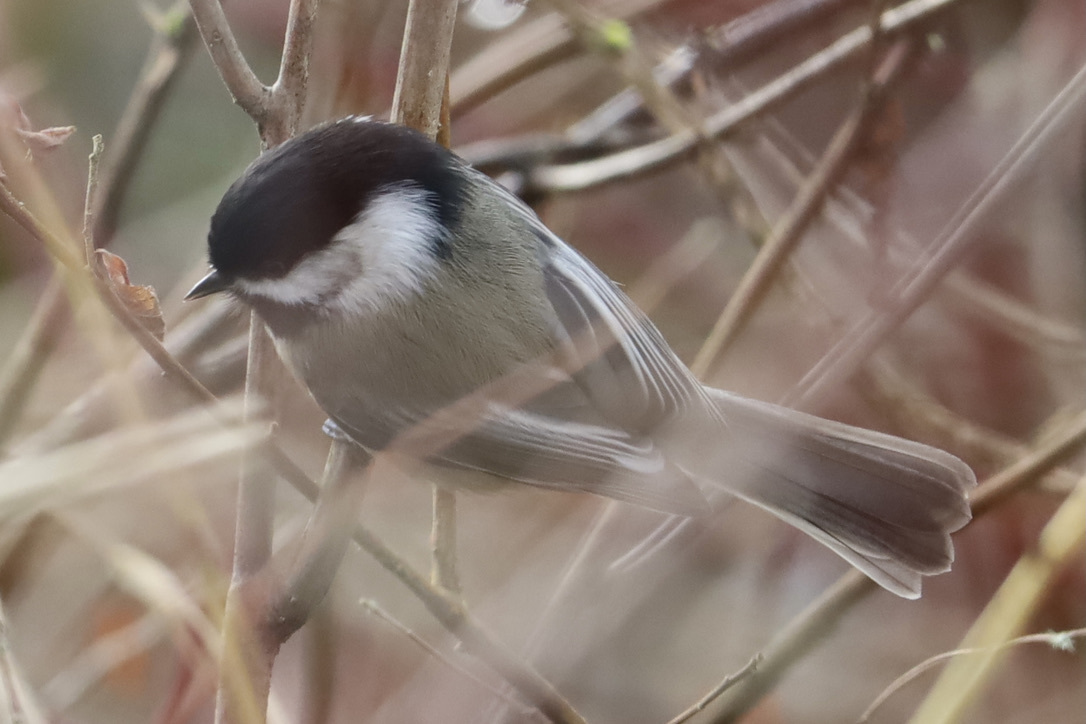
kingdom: Animalia
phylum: Chordata
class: Aves
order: Passeriformes
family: Paridae
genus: Poecile
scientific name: Poecile atricapillus
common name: Black-capped chickadee
